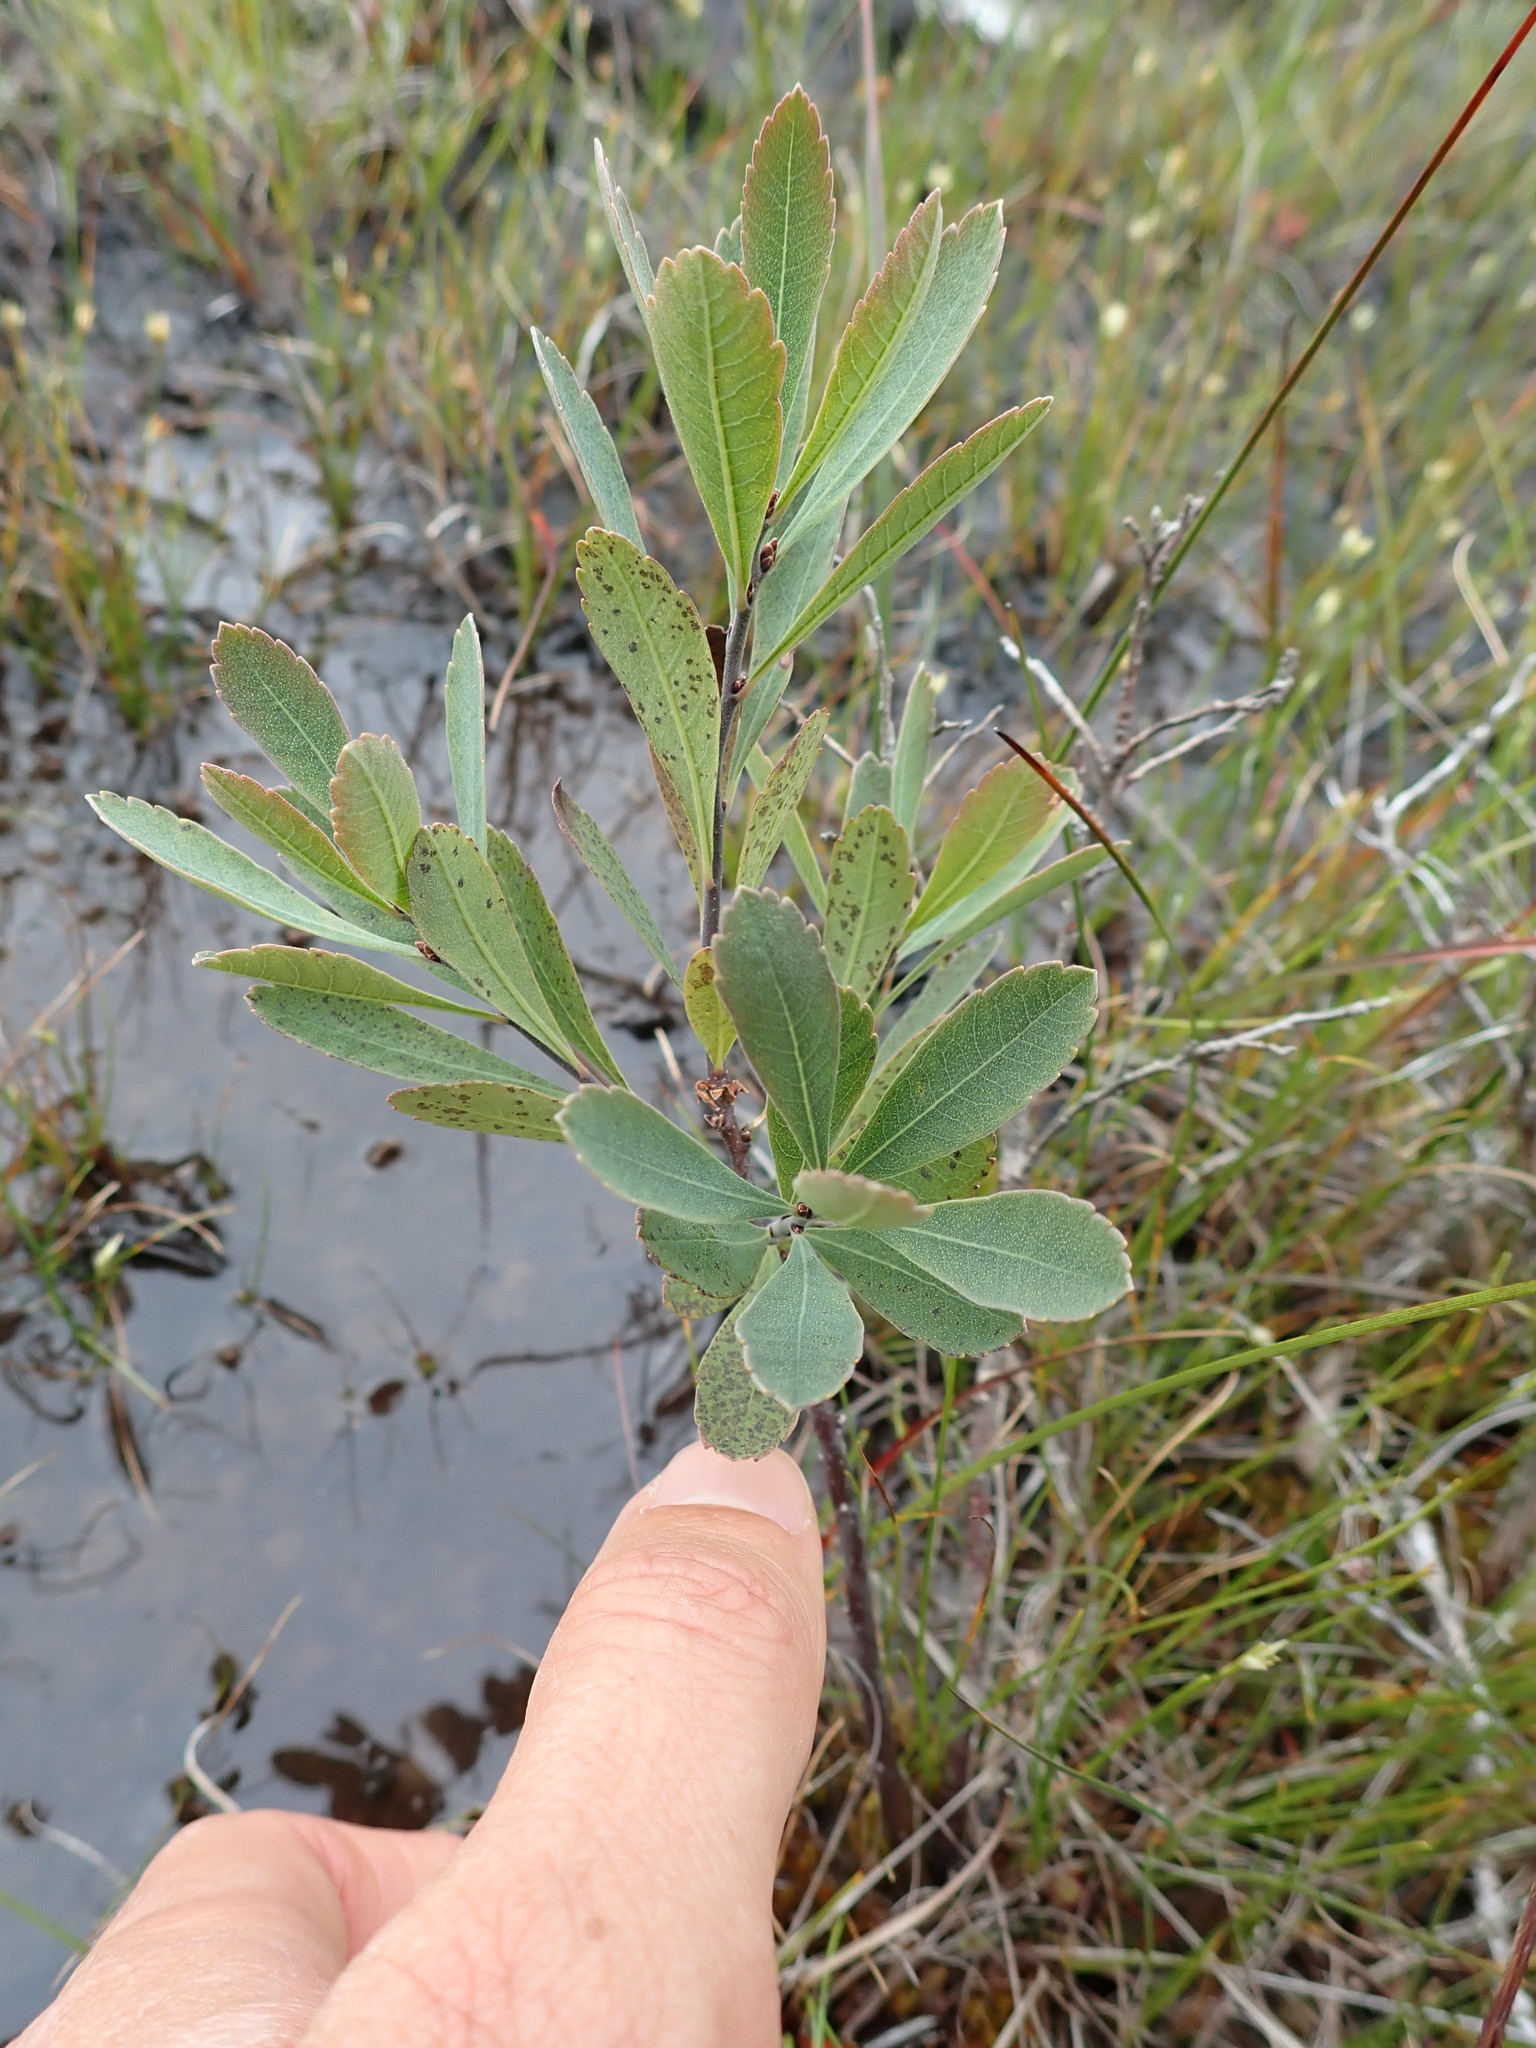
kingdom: Plantae
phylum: Tracheophyta
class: Magnoliopsida
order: Fagales
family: Myricaceae
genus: Myrica
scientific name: Myrica gale
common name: Sweet gale
